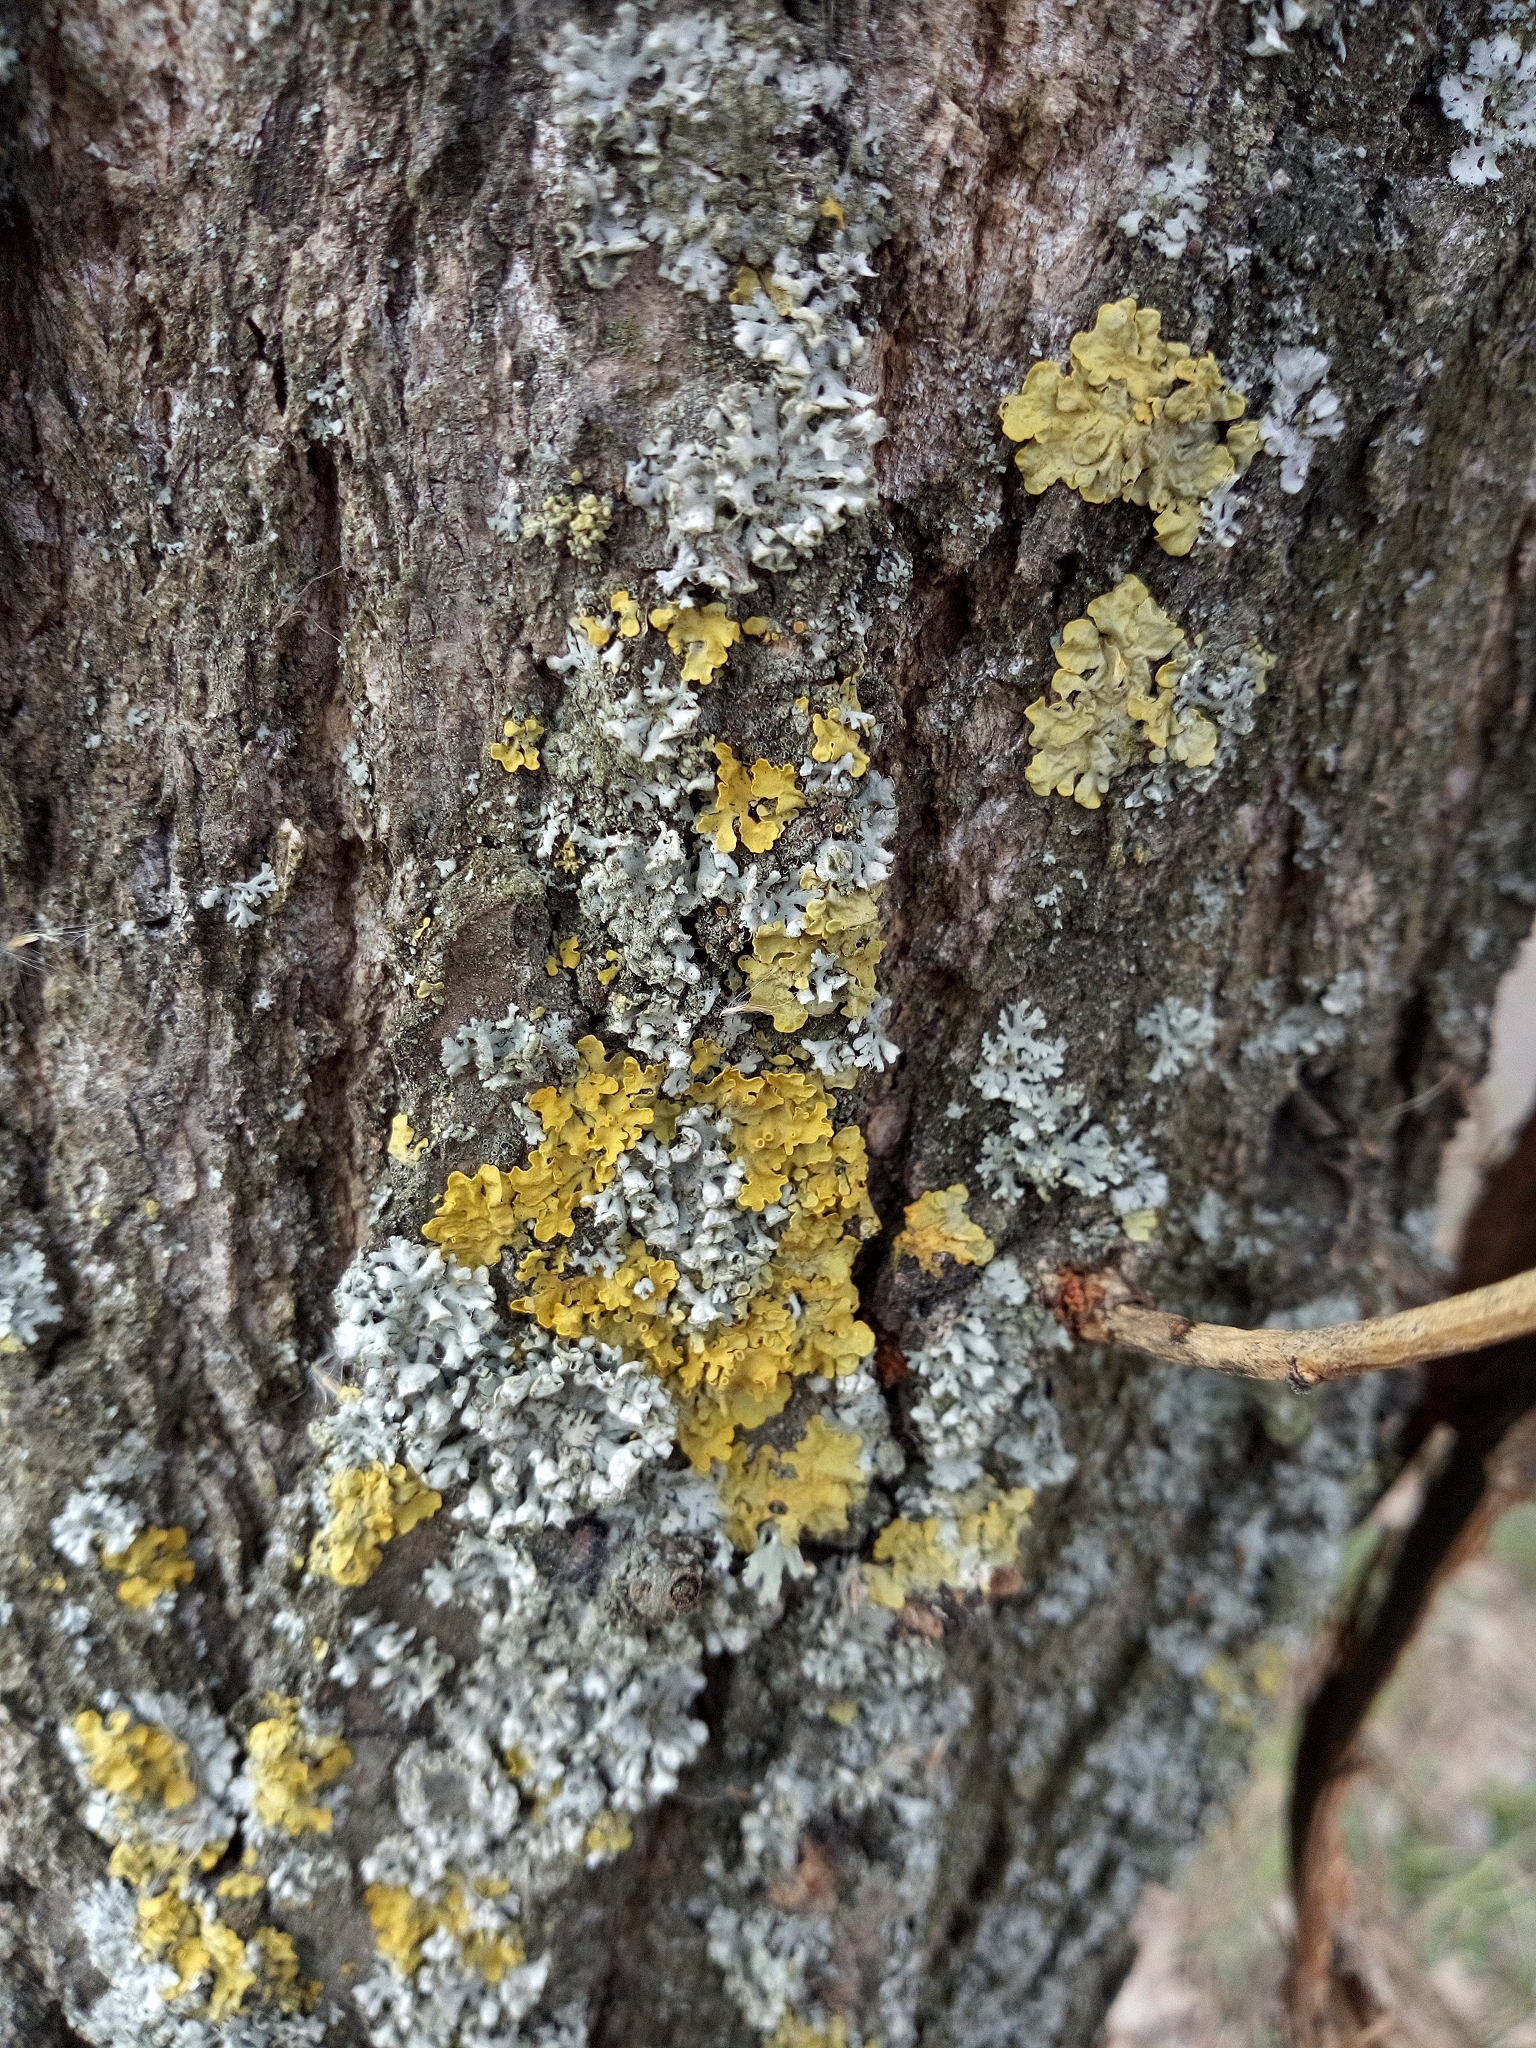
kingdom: Fungi
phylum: Ascomycota
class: Lecanoromycetes
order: Teloschistales
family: Teloschistaceae
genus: Xanthoria
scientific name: Xanthoria parietina
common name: Common orange lichen
